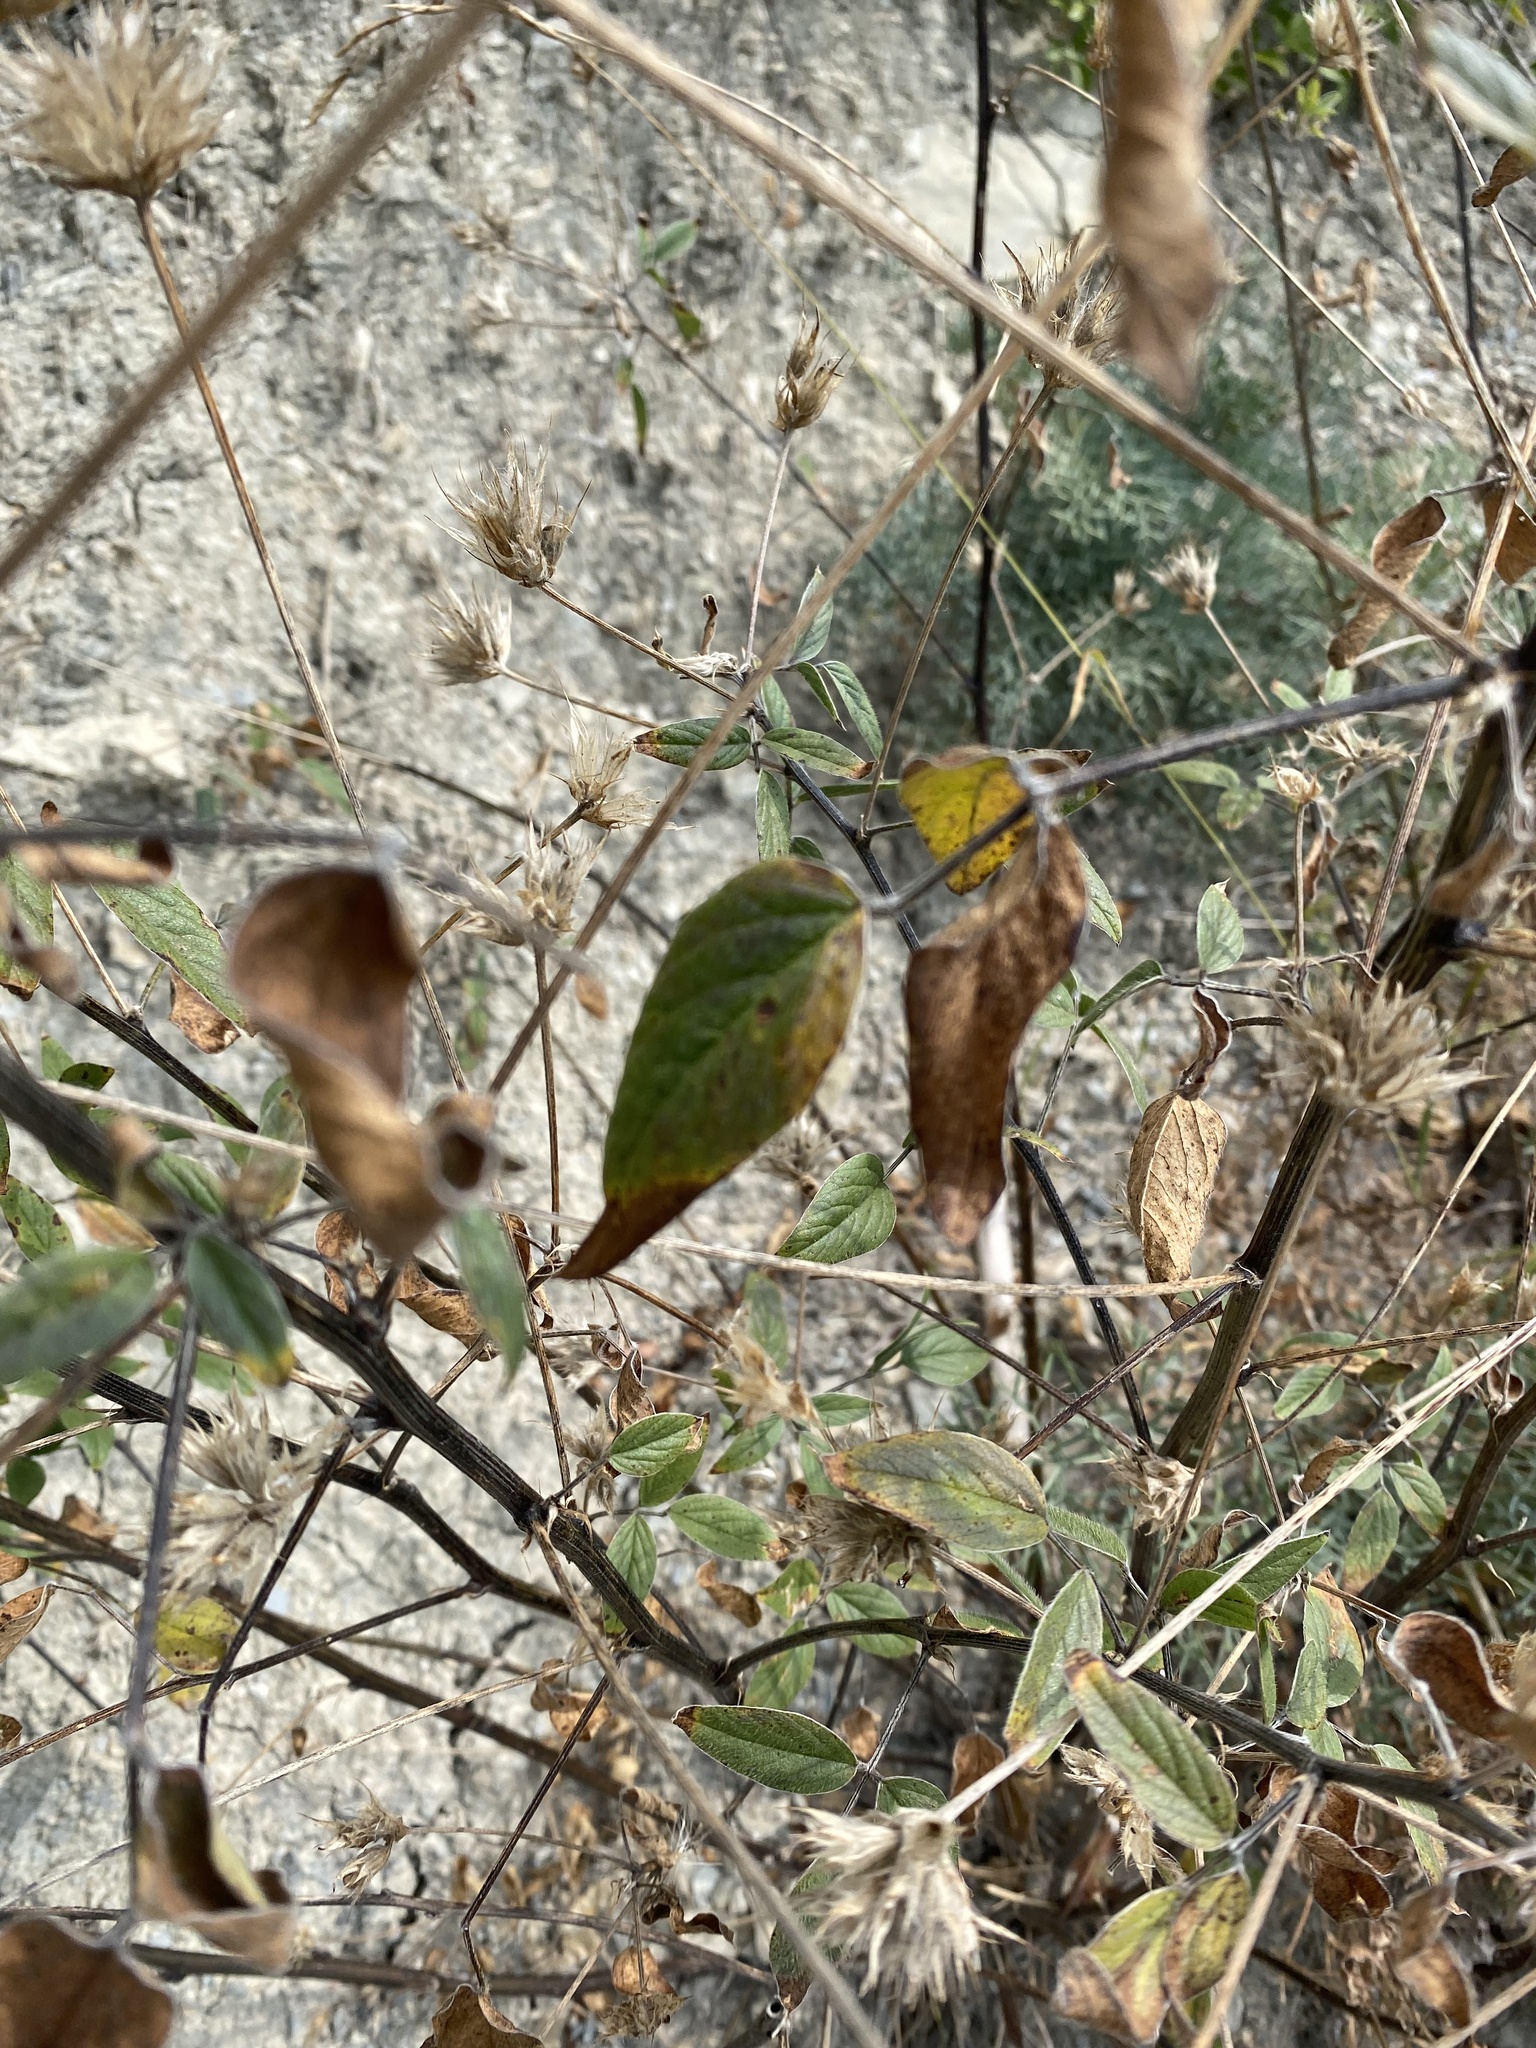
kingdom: Plantae
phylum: Tracheophyta
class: Magnoliopsida
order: Fabales
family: Fabaceae
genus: Bituminaria
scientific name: Bituminaria bituminosa
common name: Arabian pea
